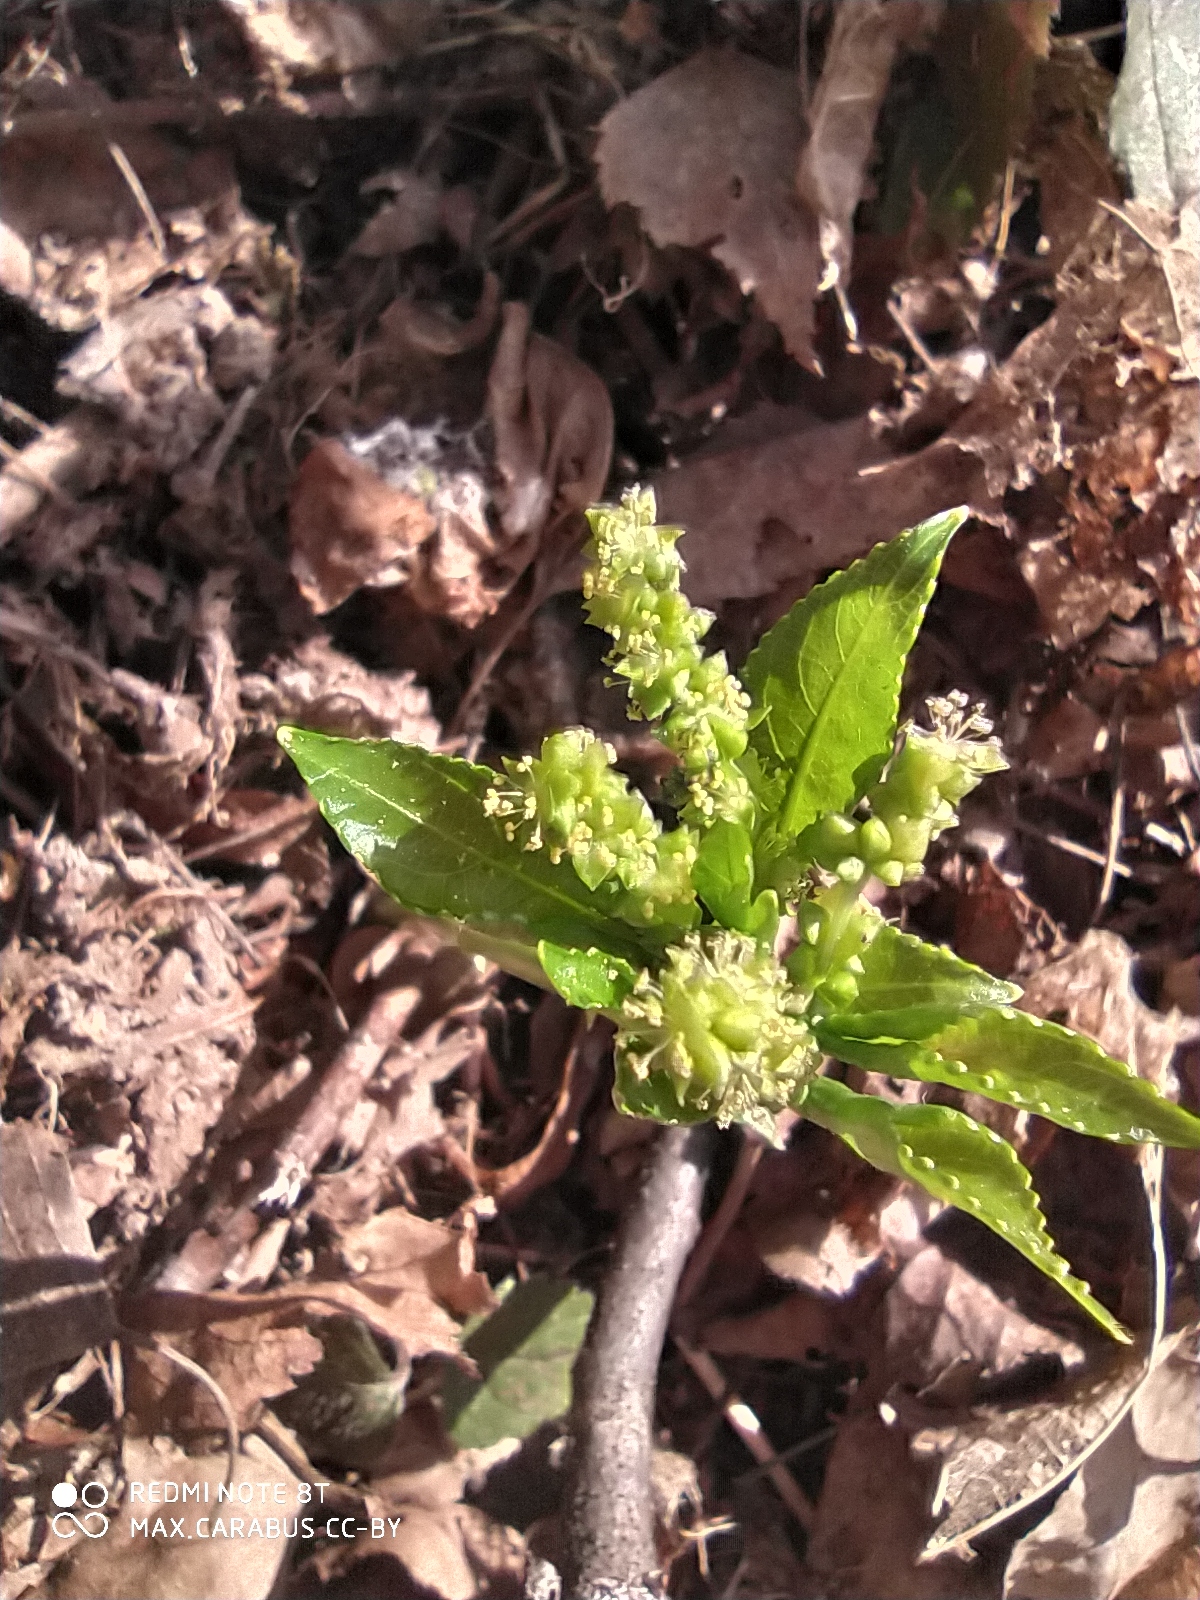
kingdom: Plantae
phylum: Tracheophyta
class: Magnoliopsida
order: Malpighiales
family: Euphorbiaceae
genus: Mercurialis
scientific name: Mercurialis perennis
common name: Dog mercury
